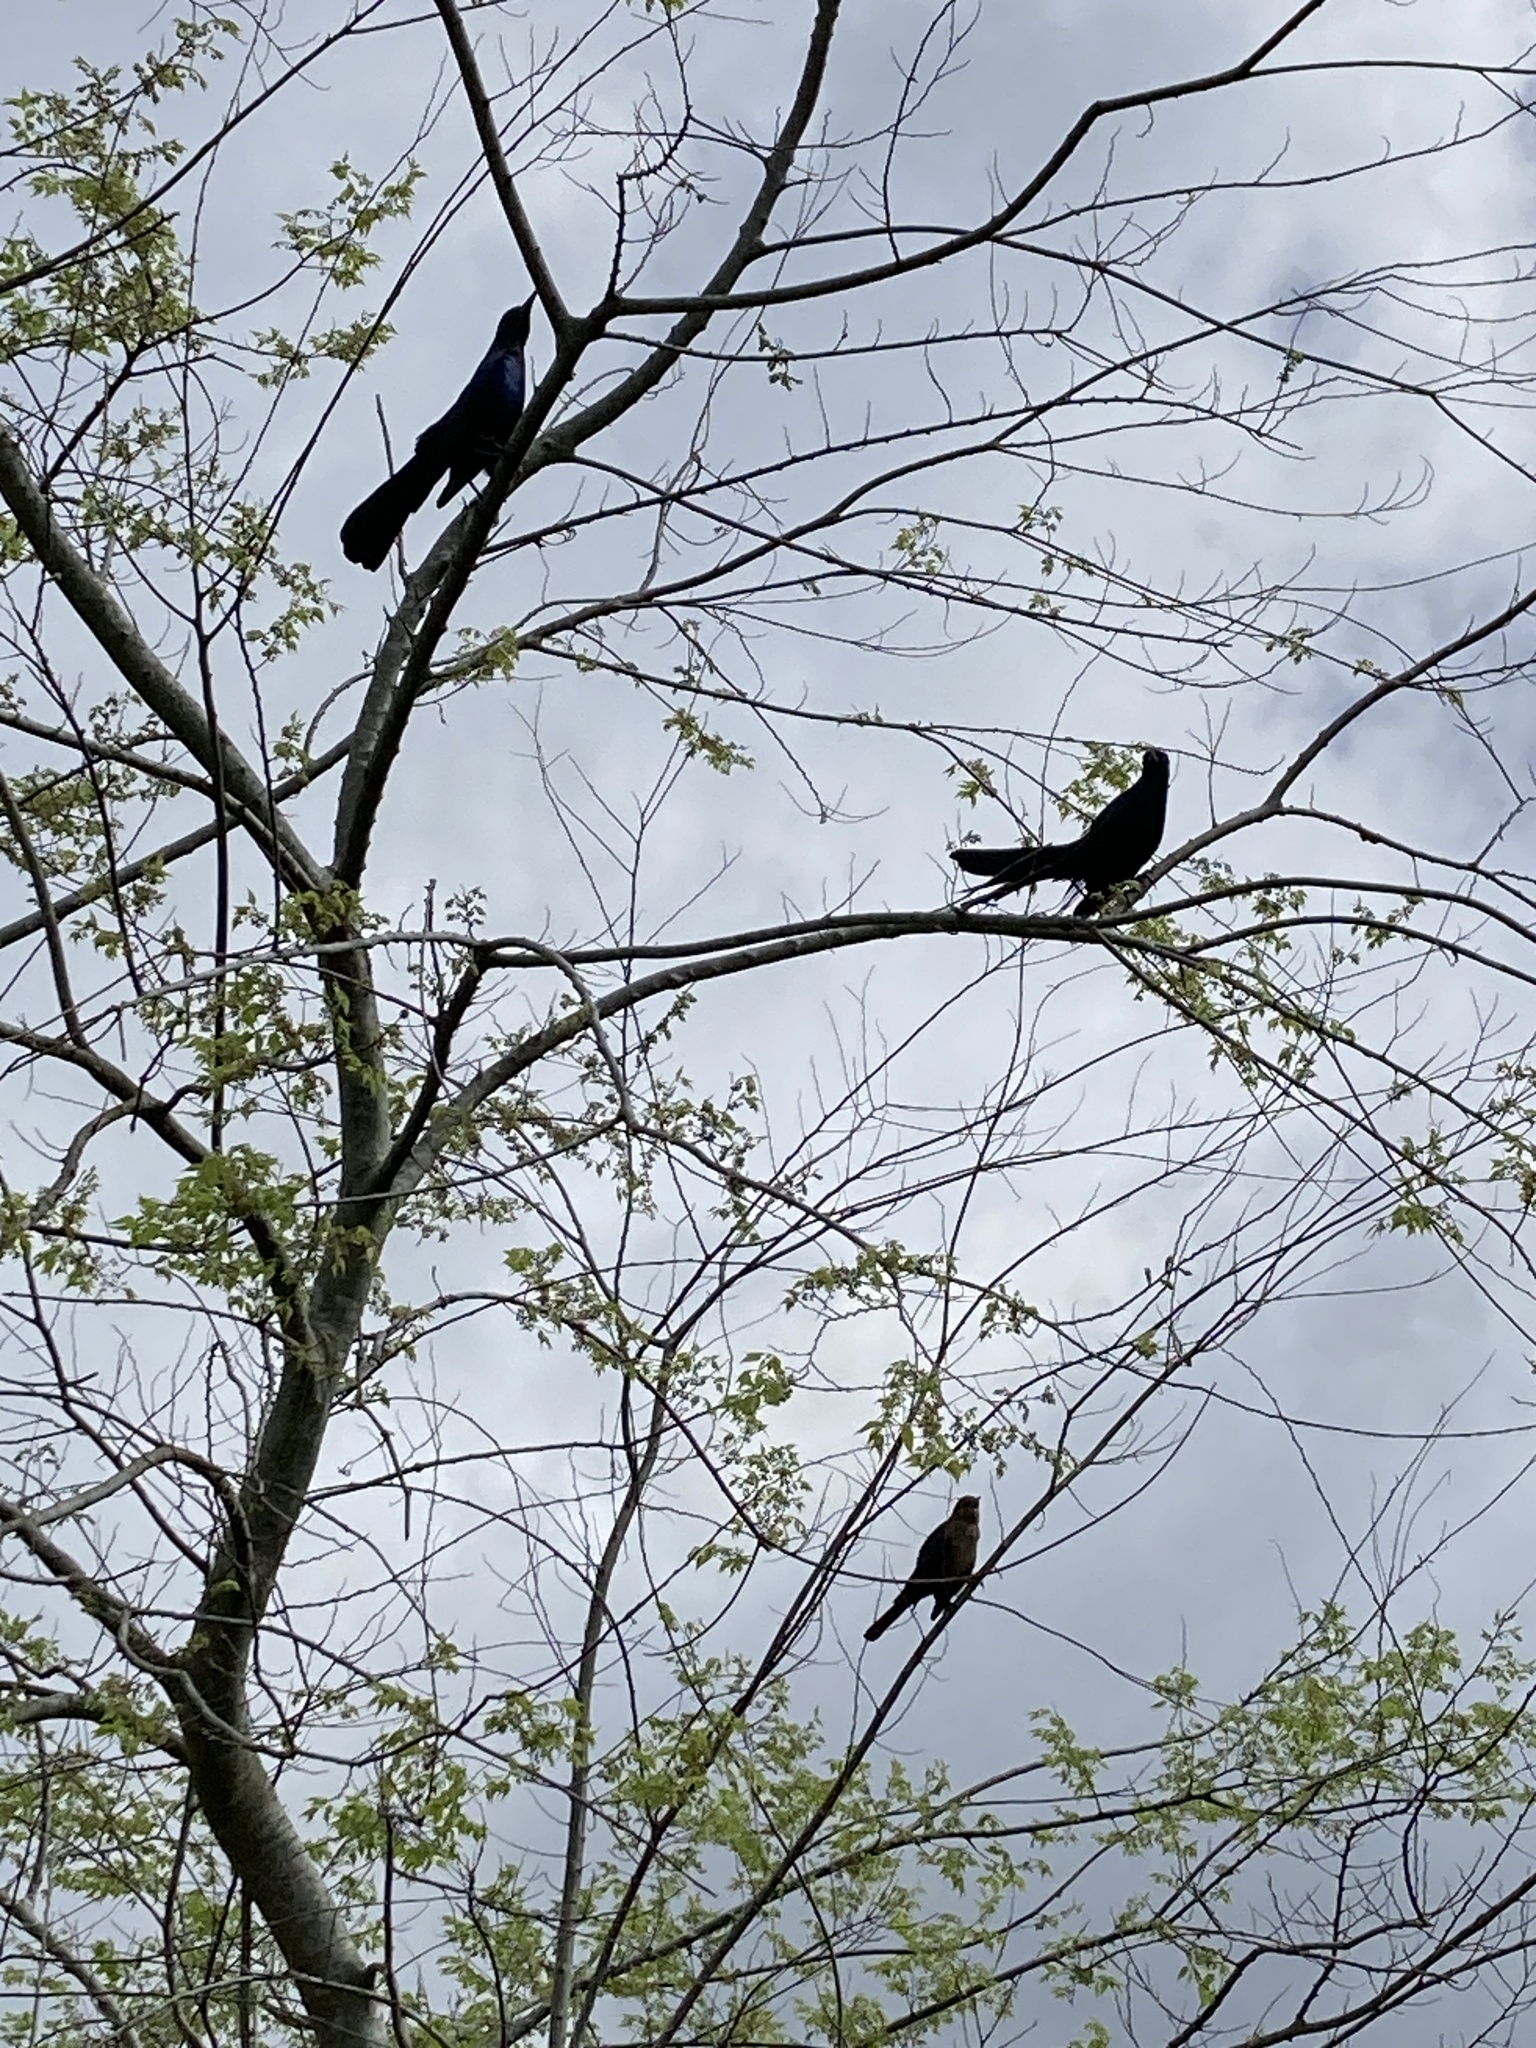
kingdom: Animalia
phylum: Chordata
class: Aves
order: Passeriformes
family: Icteridae
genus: Quiscalus
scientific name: Quiscalus major
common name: Boat-tailed grackle
